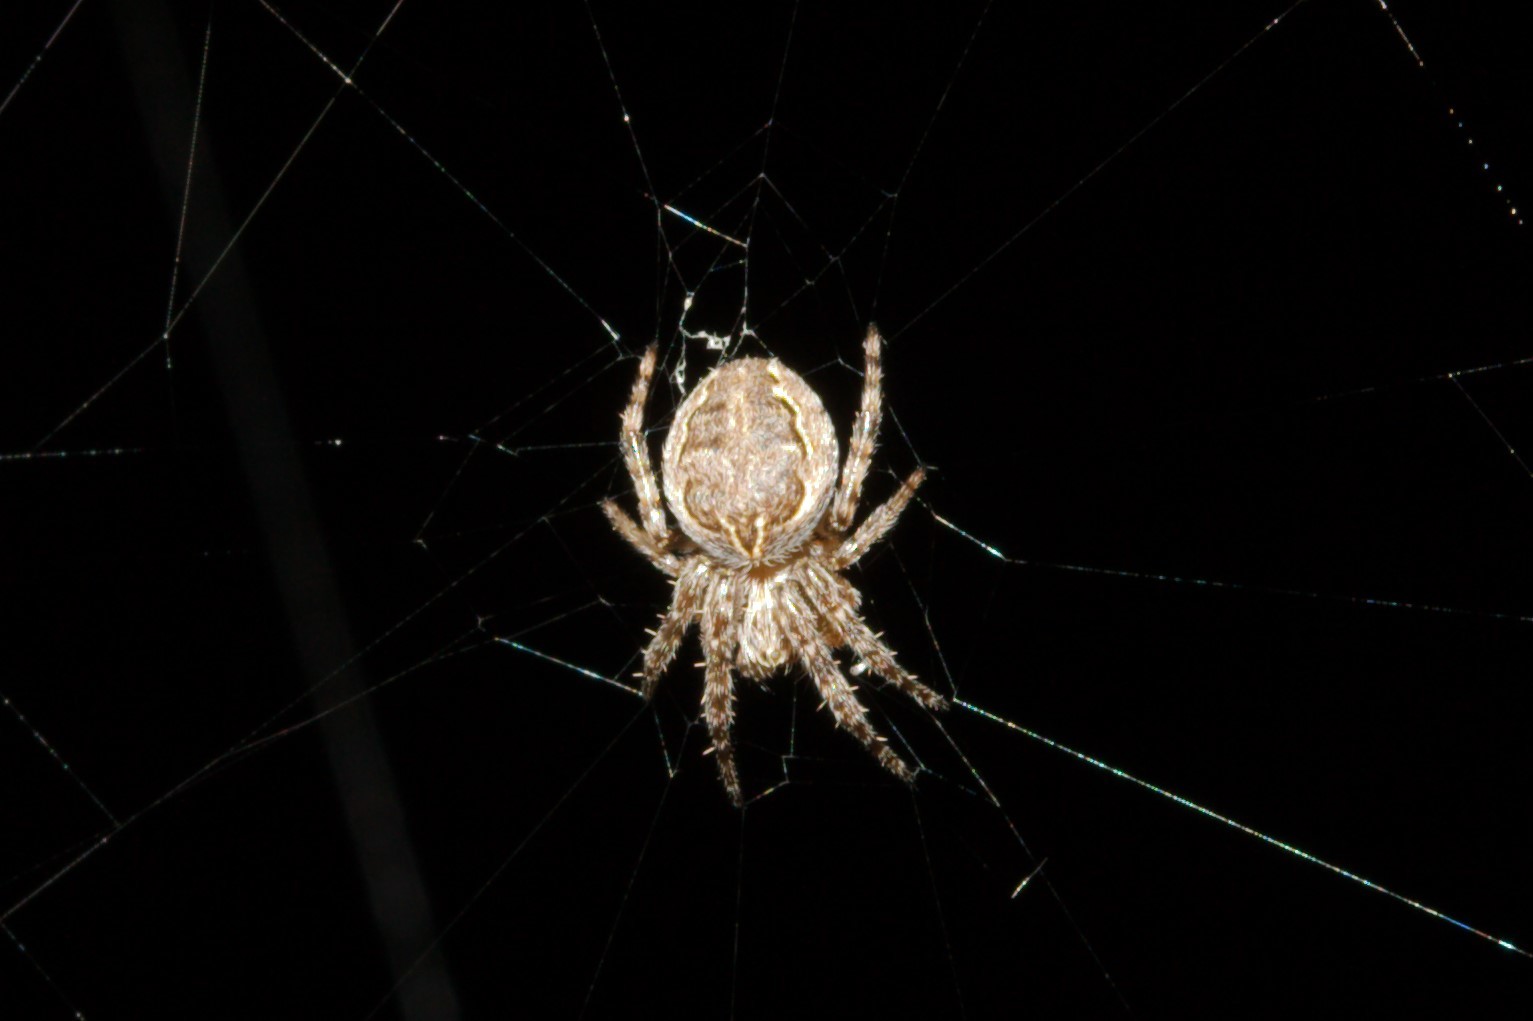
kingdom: Animalia
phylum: Arthropoda
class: Arachnida
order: Araneae
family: Araneidae
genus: Larinioides
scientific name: Larinioides sclopetarius
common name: Bridge orbweaver
